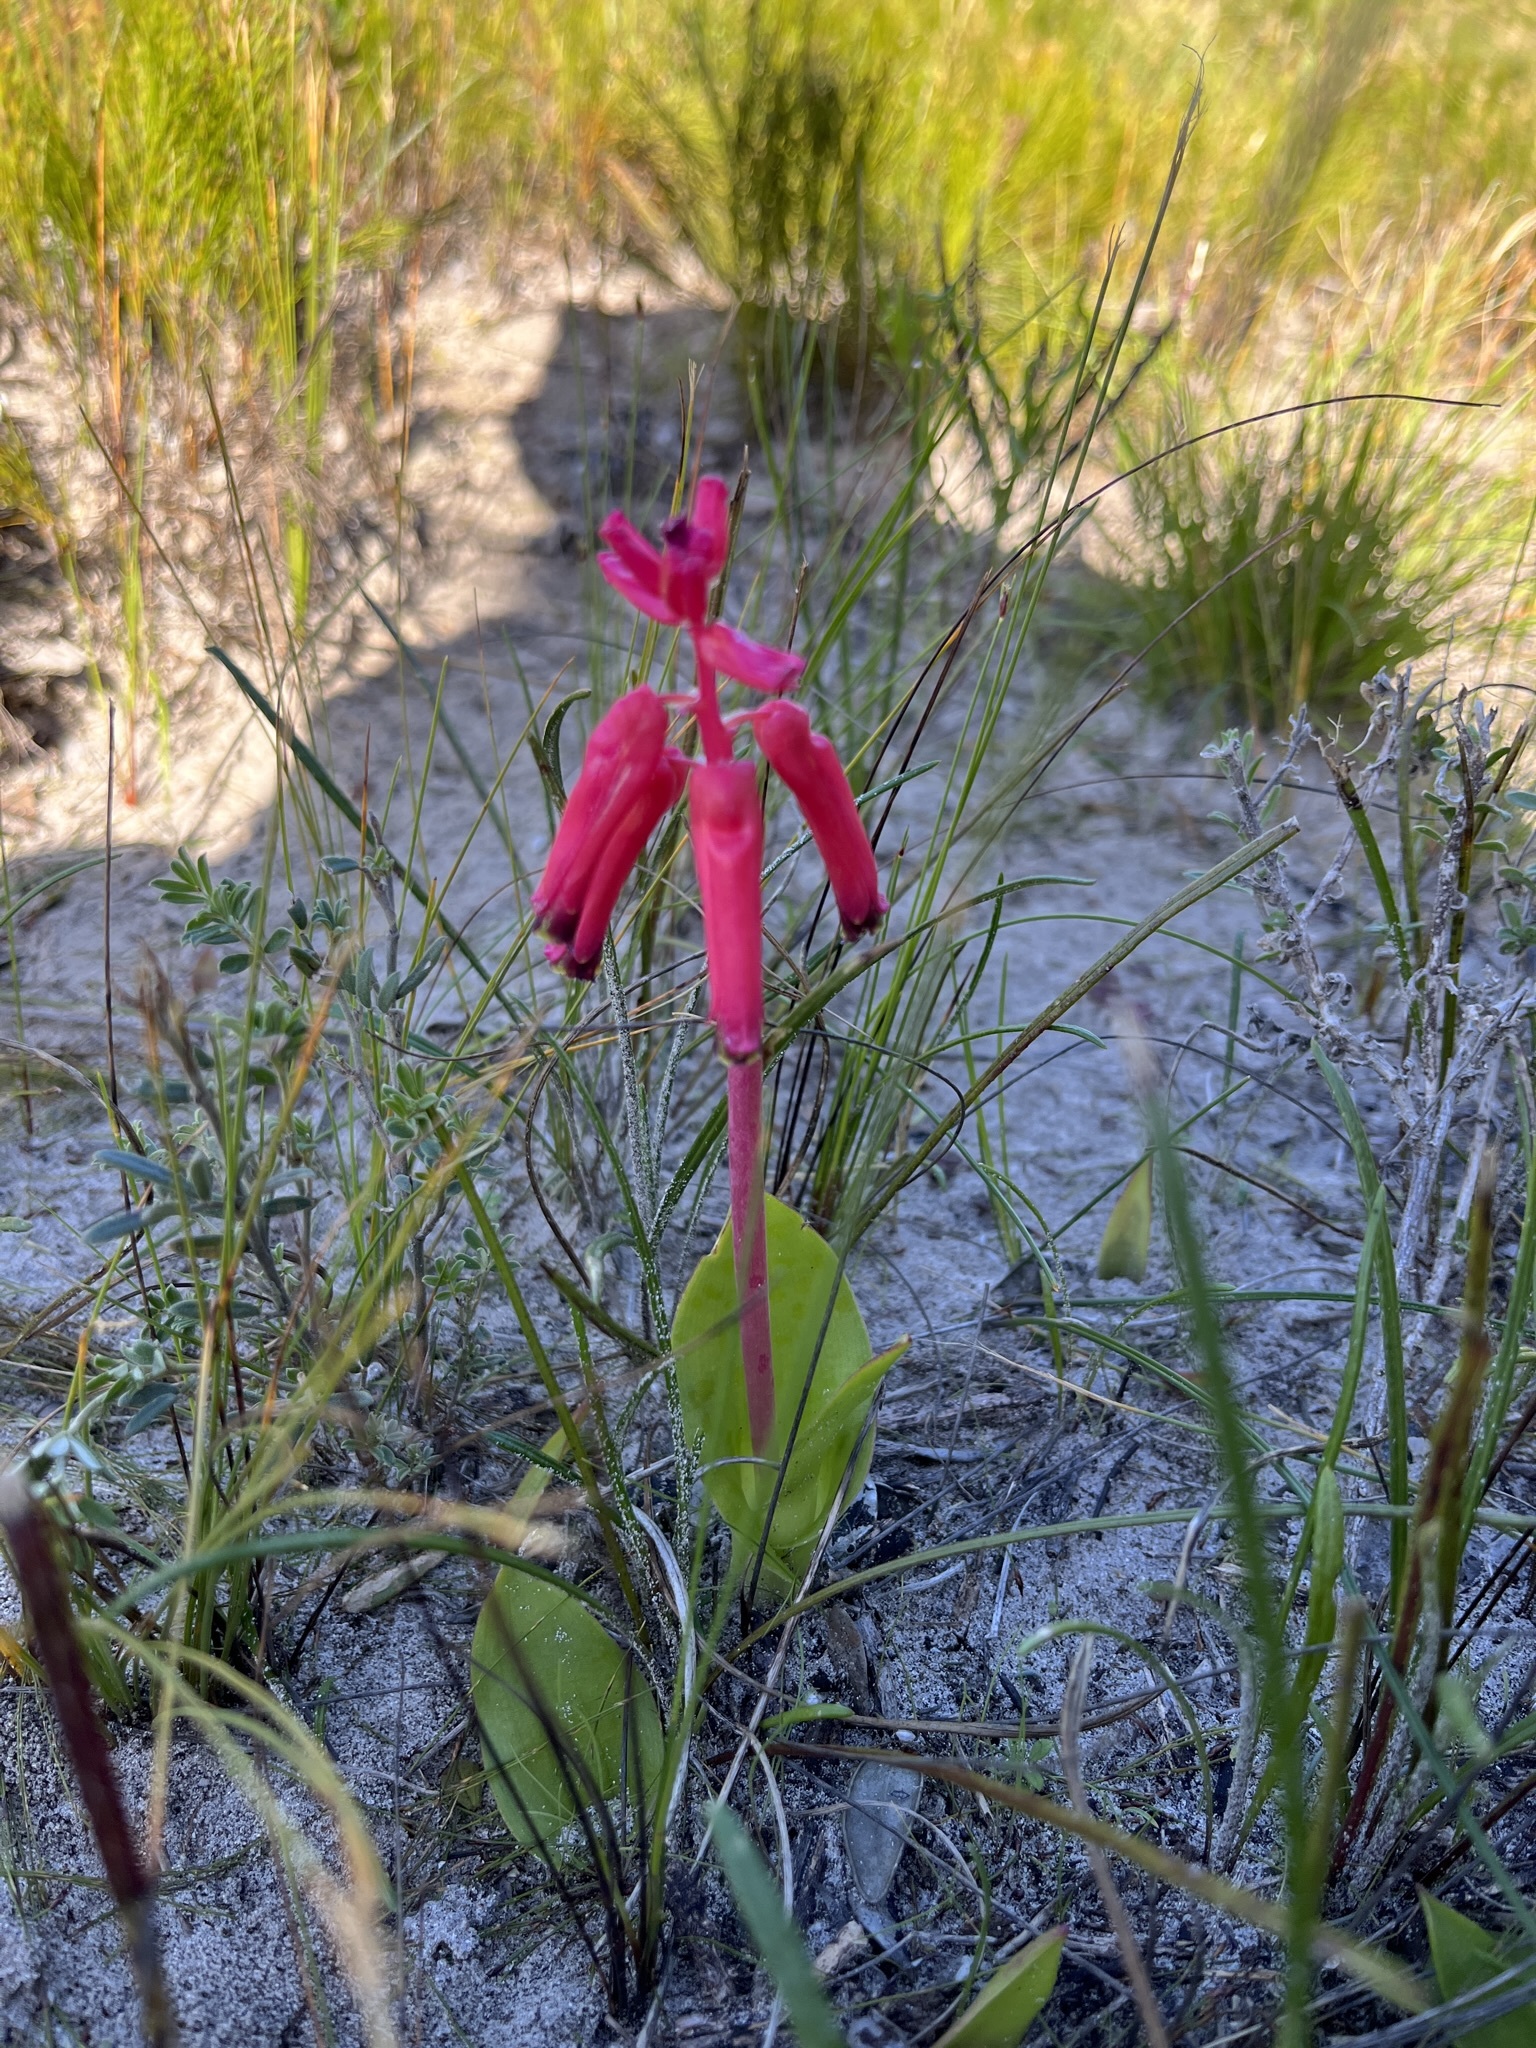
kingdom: Plantae
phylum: Tracheophyta
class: Liliopsida
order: Asparagales
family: Asparagaceae
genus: Lachenalia
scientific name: Lachenalia bulbifera
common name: Red lachenalia
